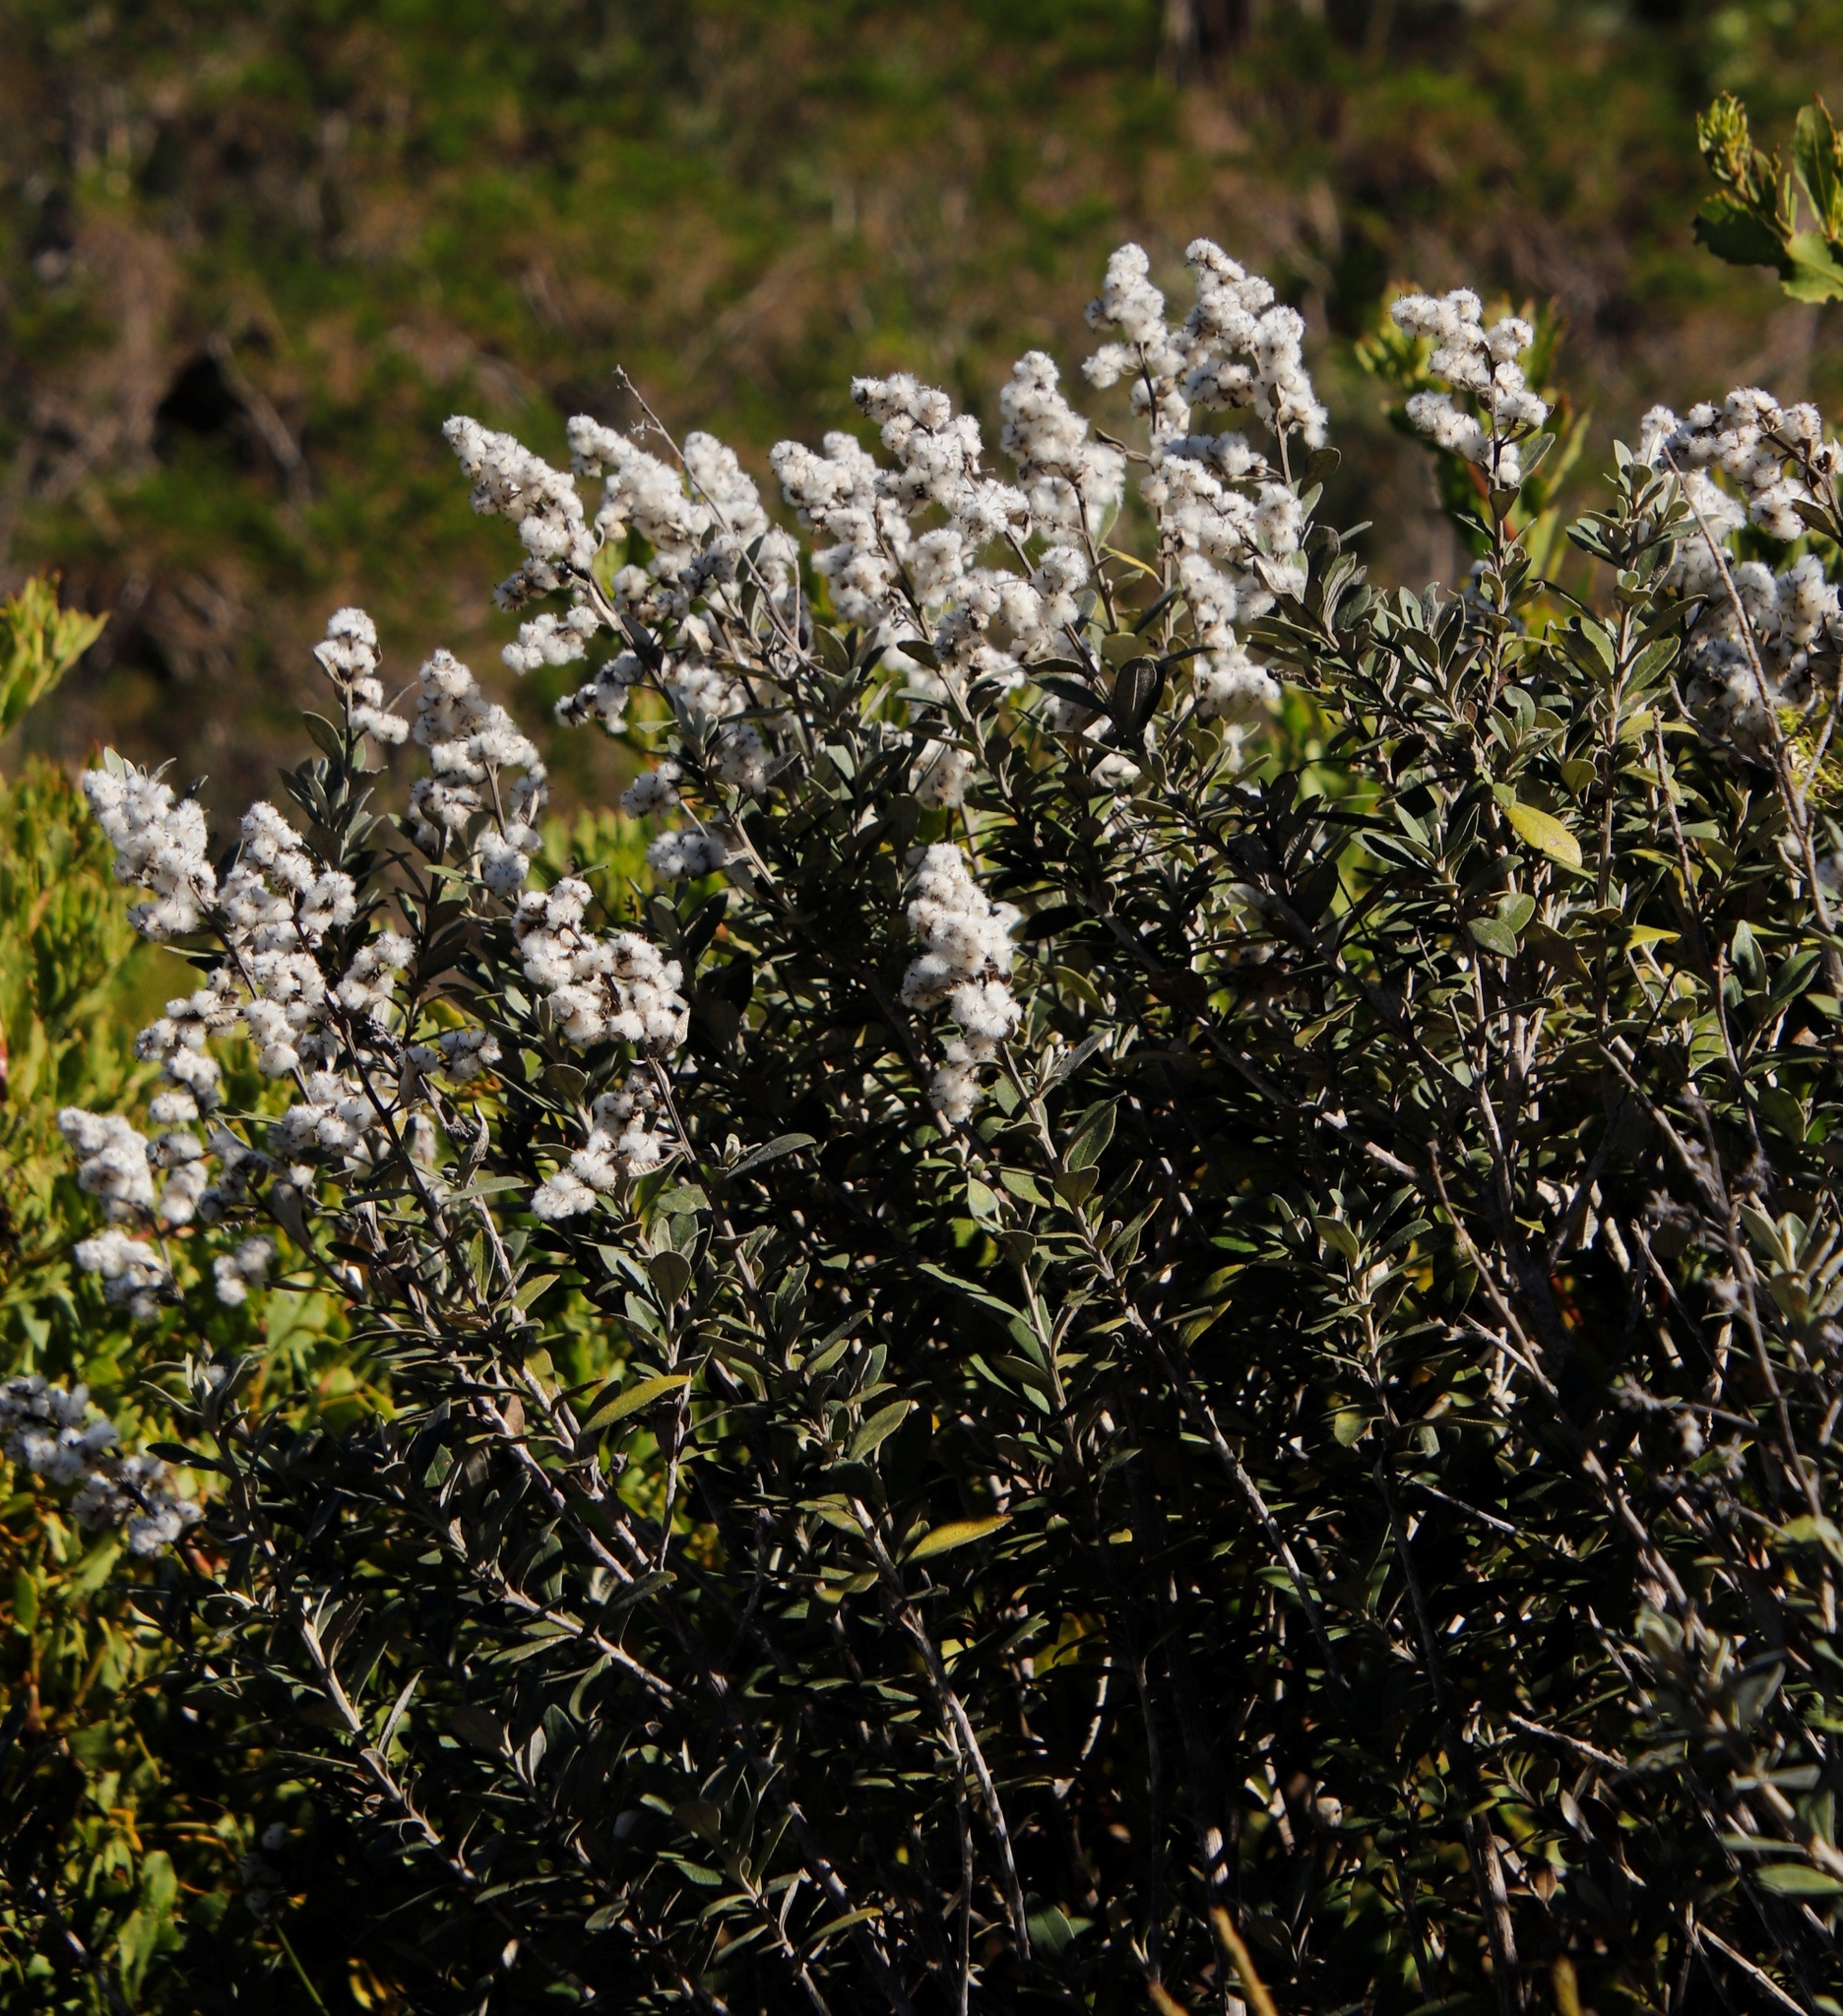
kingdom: Plantae
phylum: Tracheophyta
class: Magnoliopsida
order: Asterales
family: Asteraceae
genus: Tarchonanthus
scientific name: Tarchonanthus littoralis
